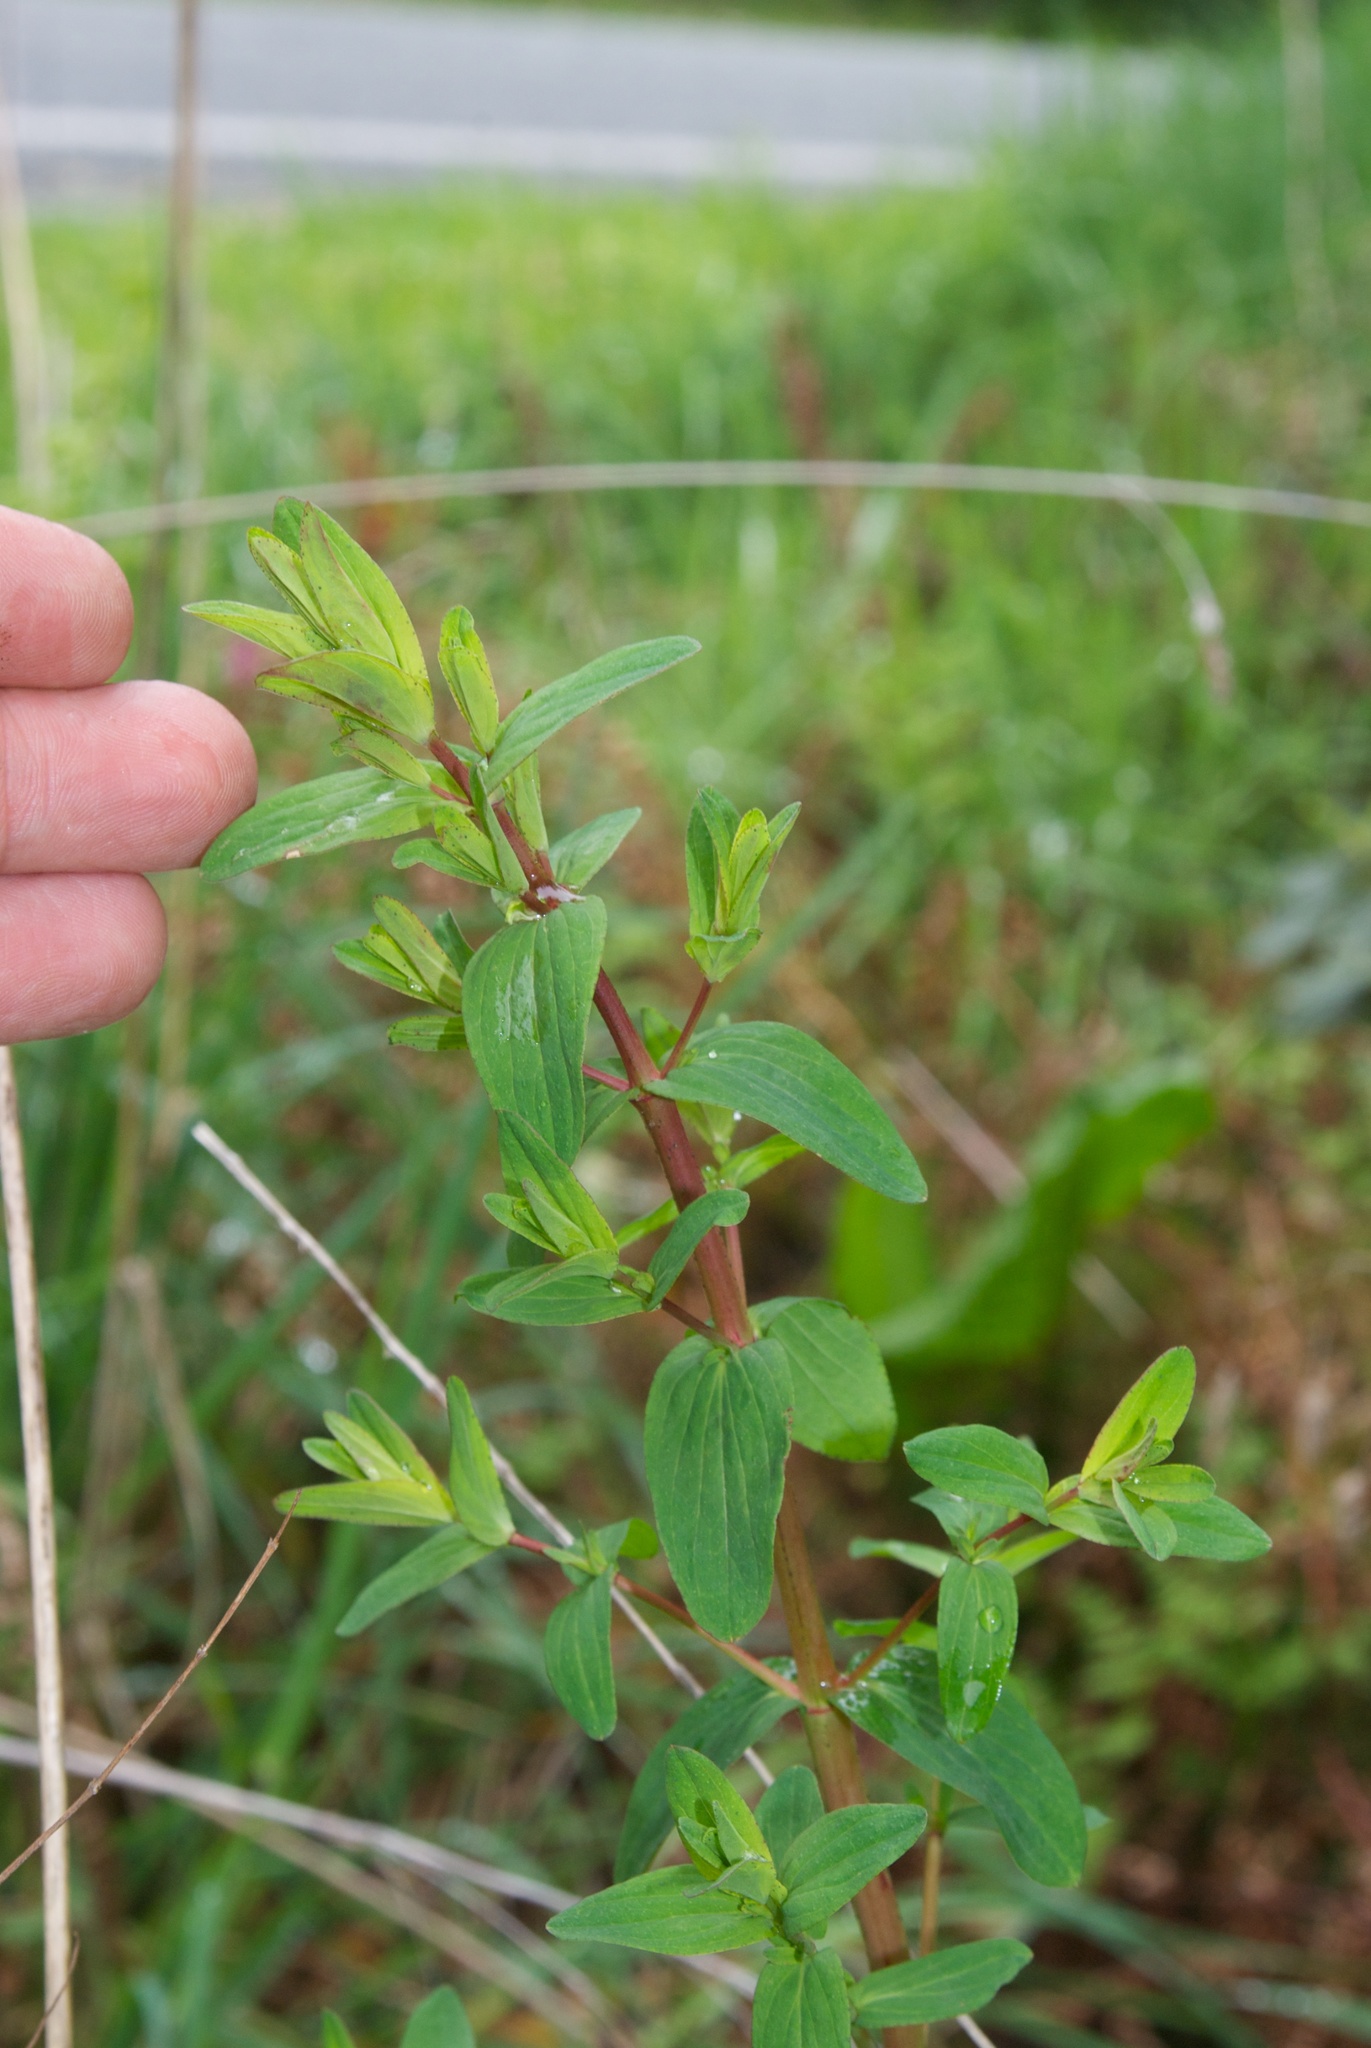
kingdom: Plantae
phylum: Tracheophyta
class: Magnoliopsida
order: Malpighiales
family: Hypericaceae
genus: Hypericum
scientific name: Hypericum perforatum
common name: Common st. johnswort
